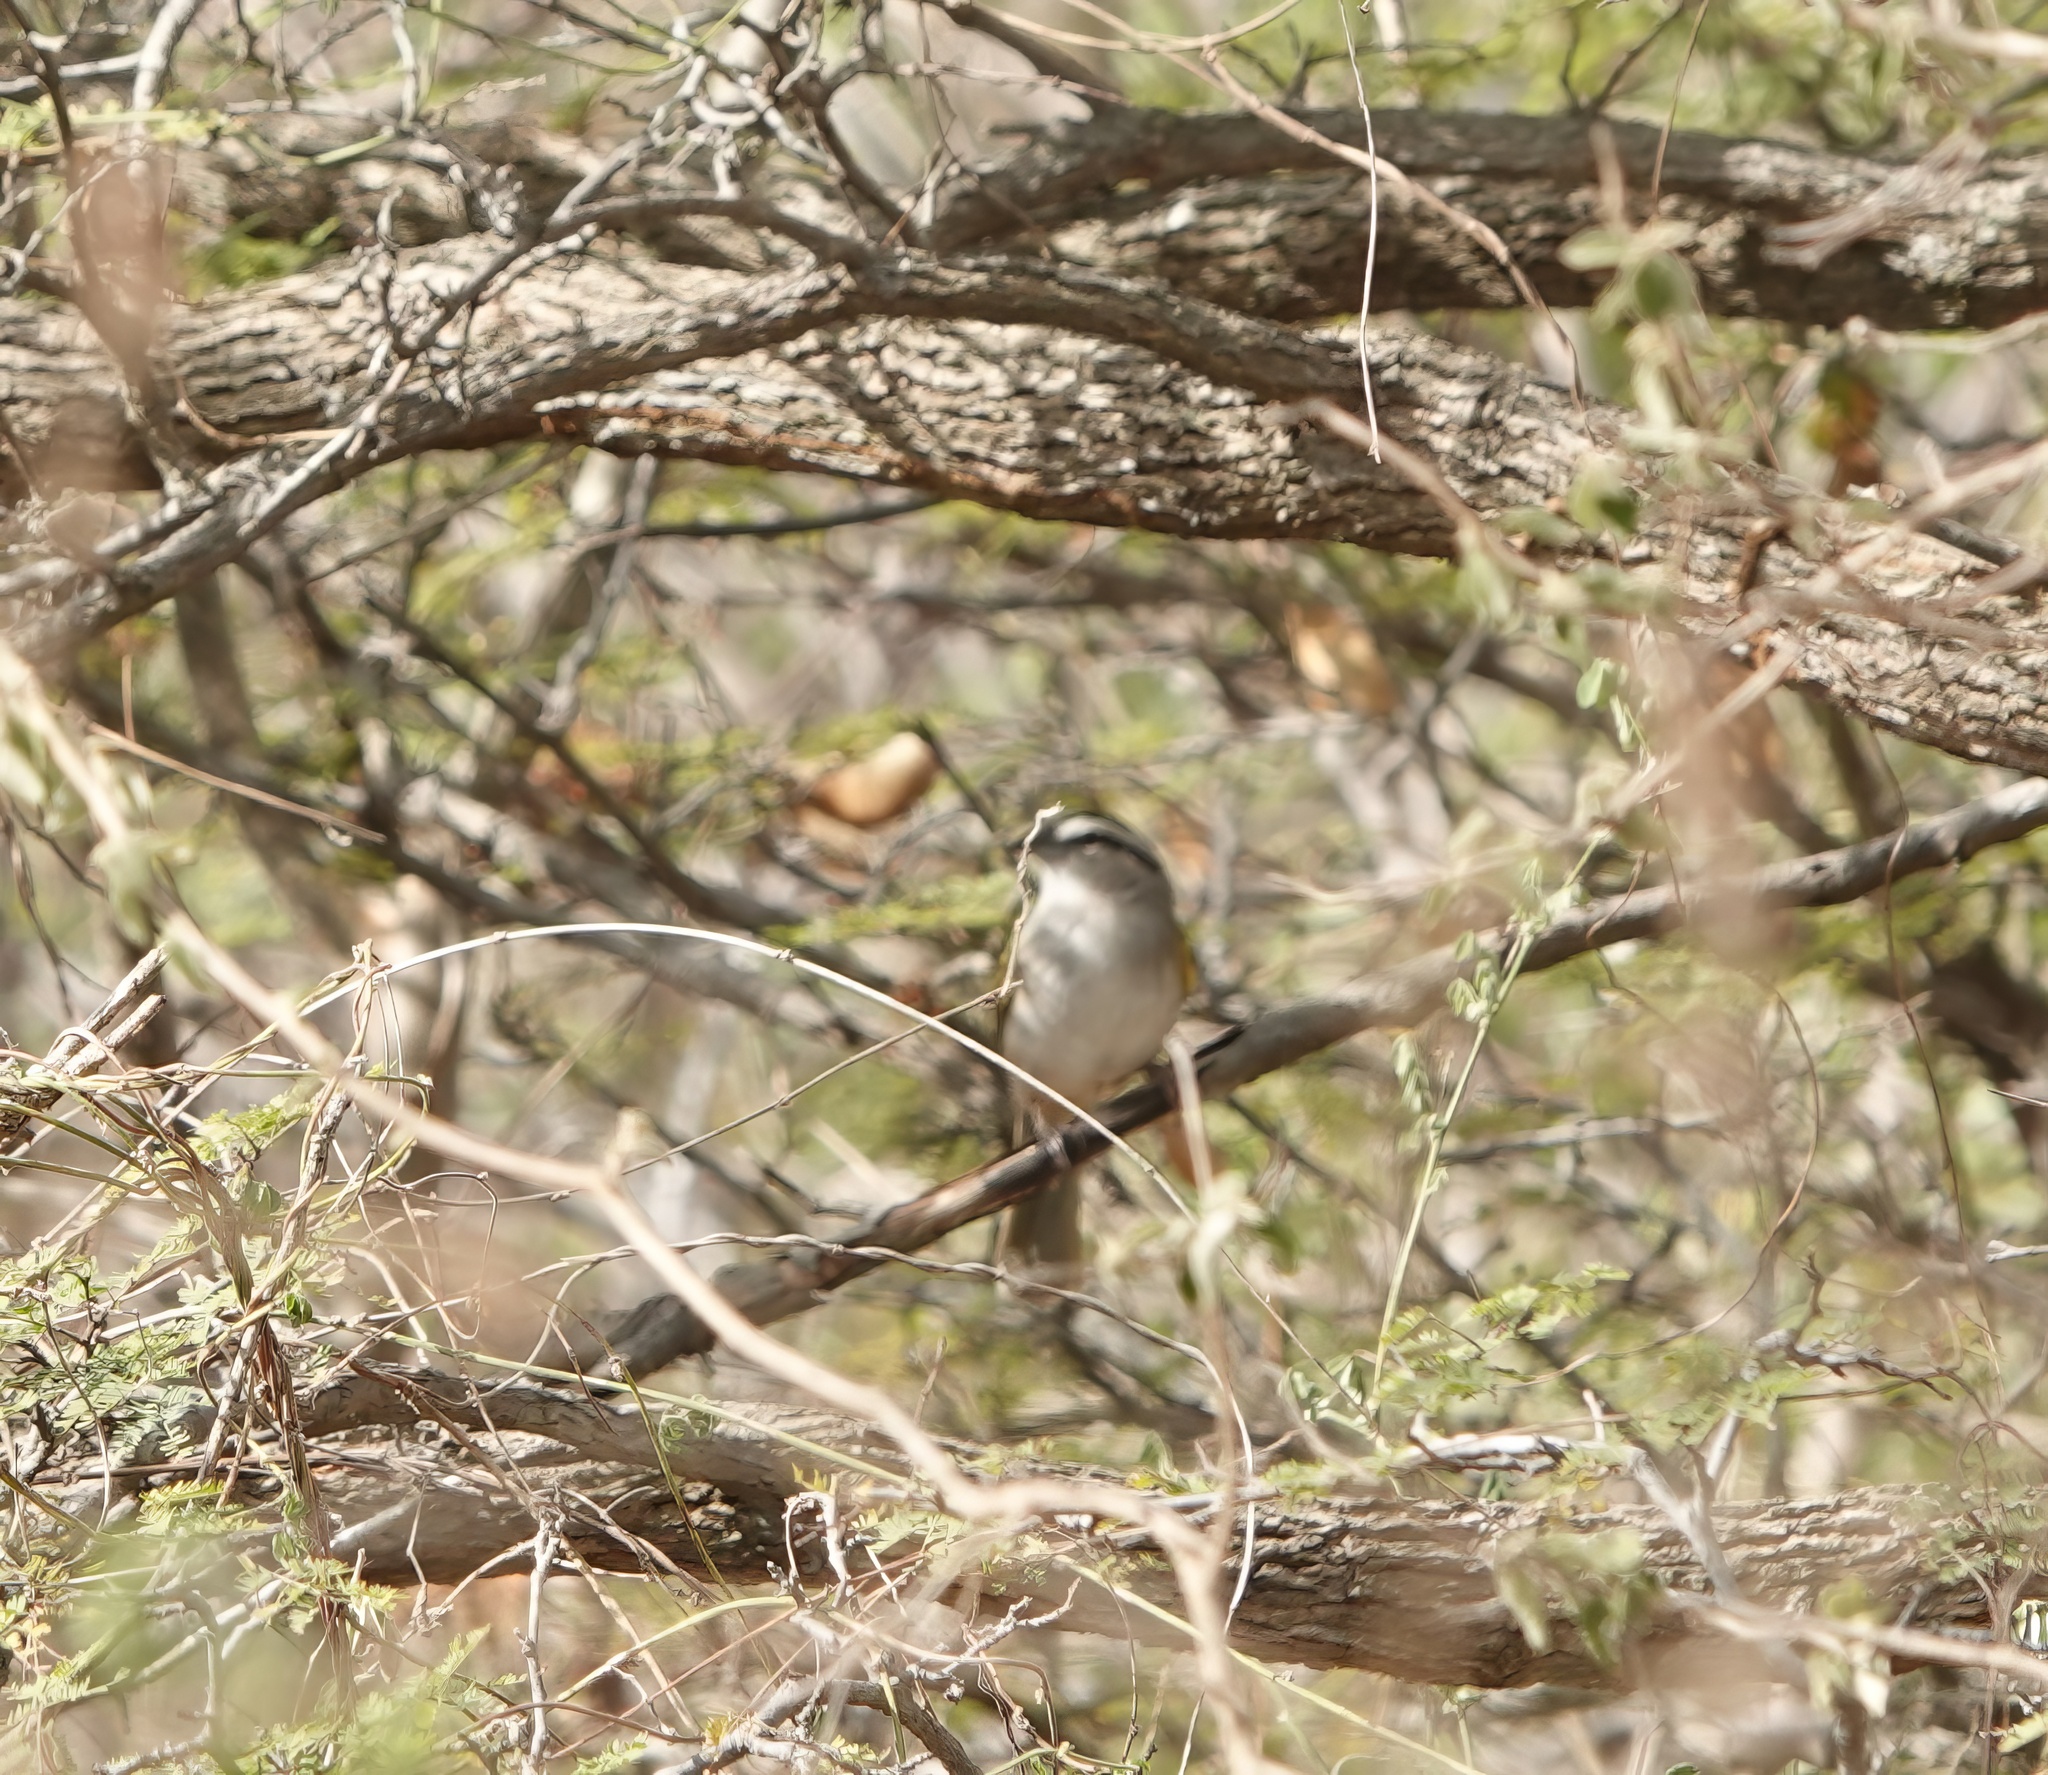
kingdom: Animalia
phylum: Chordata
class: Aves
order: Passeriformes
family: Passerellidae
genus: Arremonops
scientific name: Arremonops tocuyensis
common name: Tocuyo sparrow
